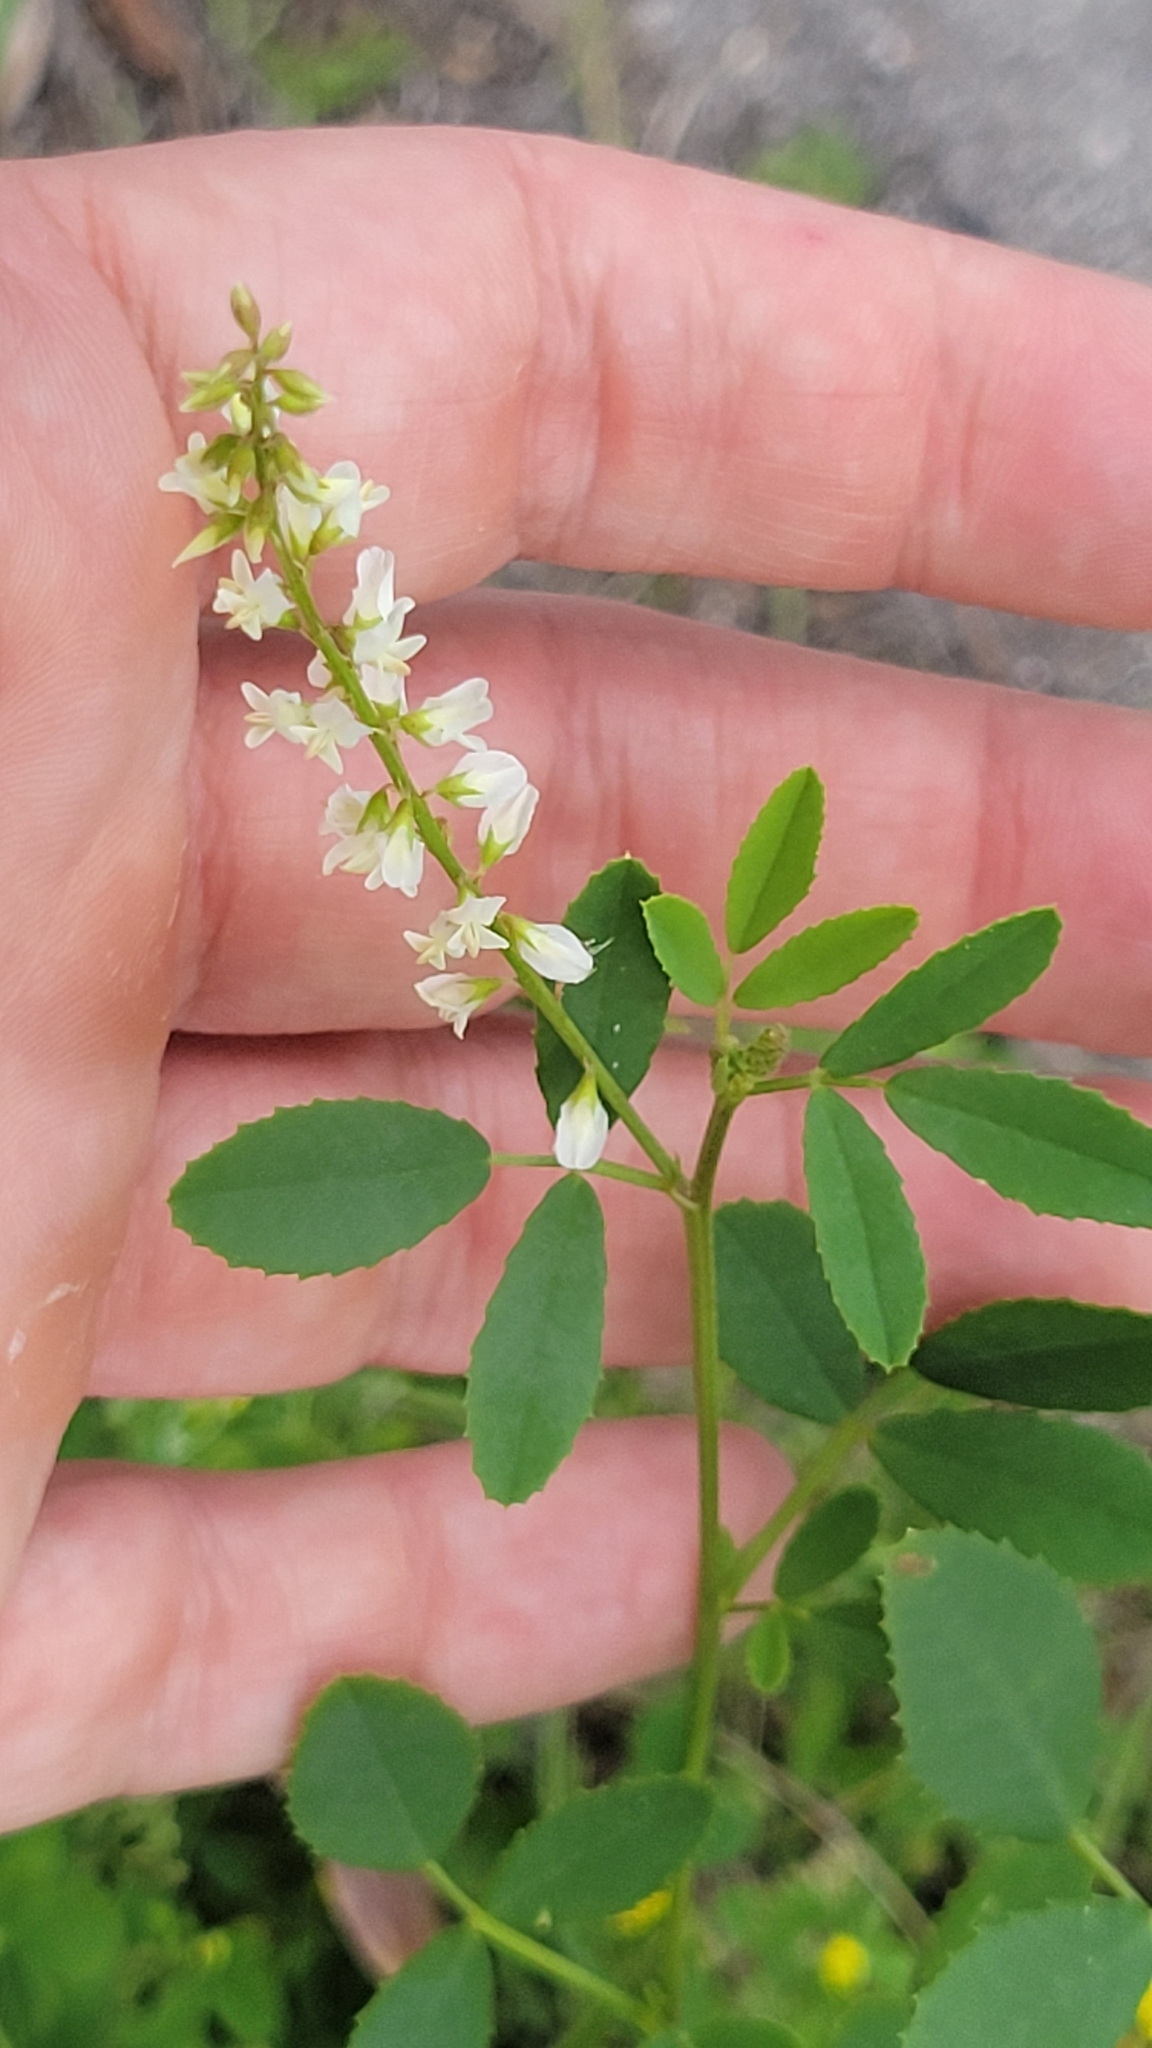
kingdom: Plantae
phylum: Tracheophyta
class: Magnoliopsida
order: Fabales
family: Fabaceae
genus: Melilotus
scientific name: Melilotus albus
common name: White melilot
